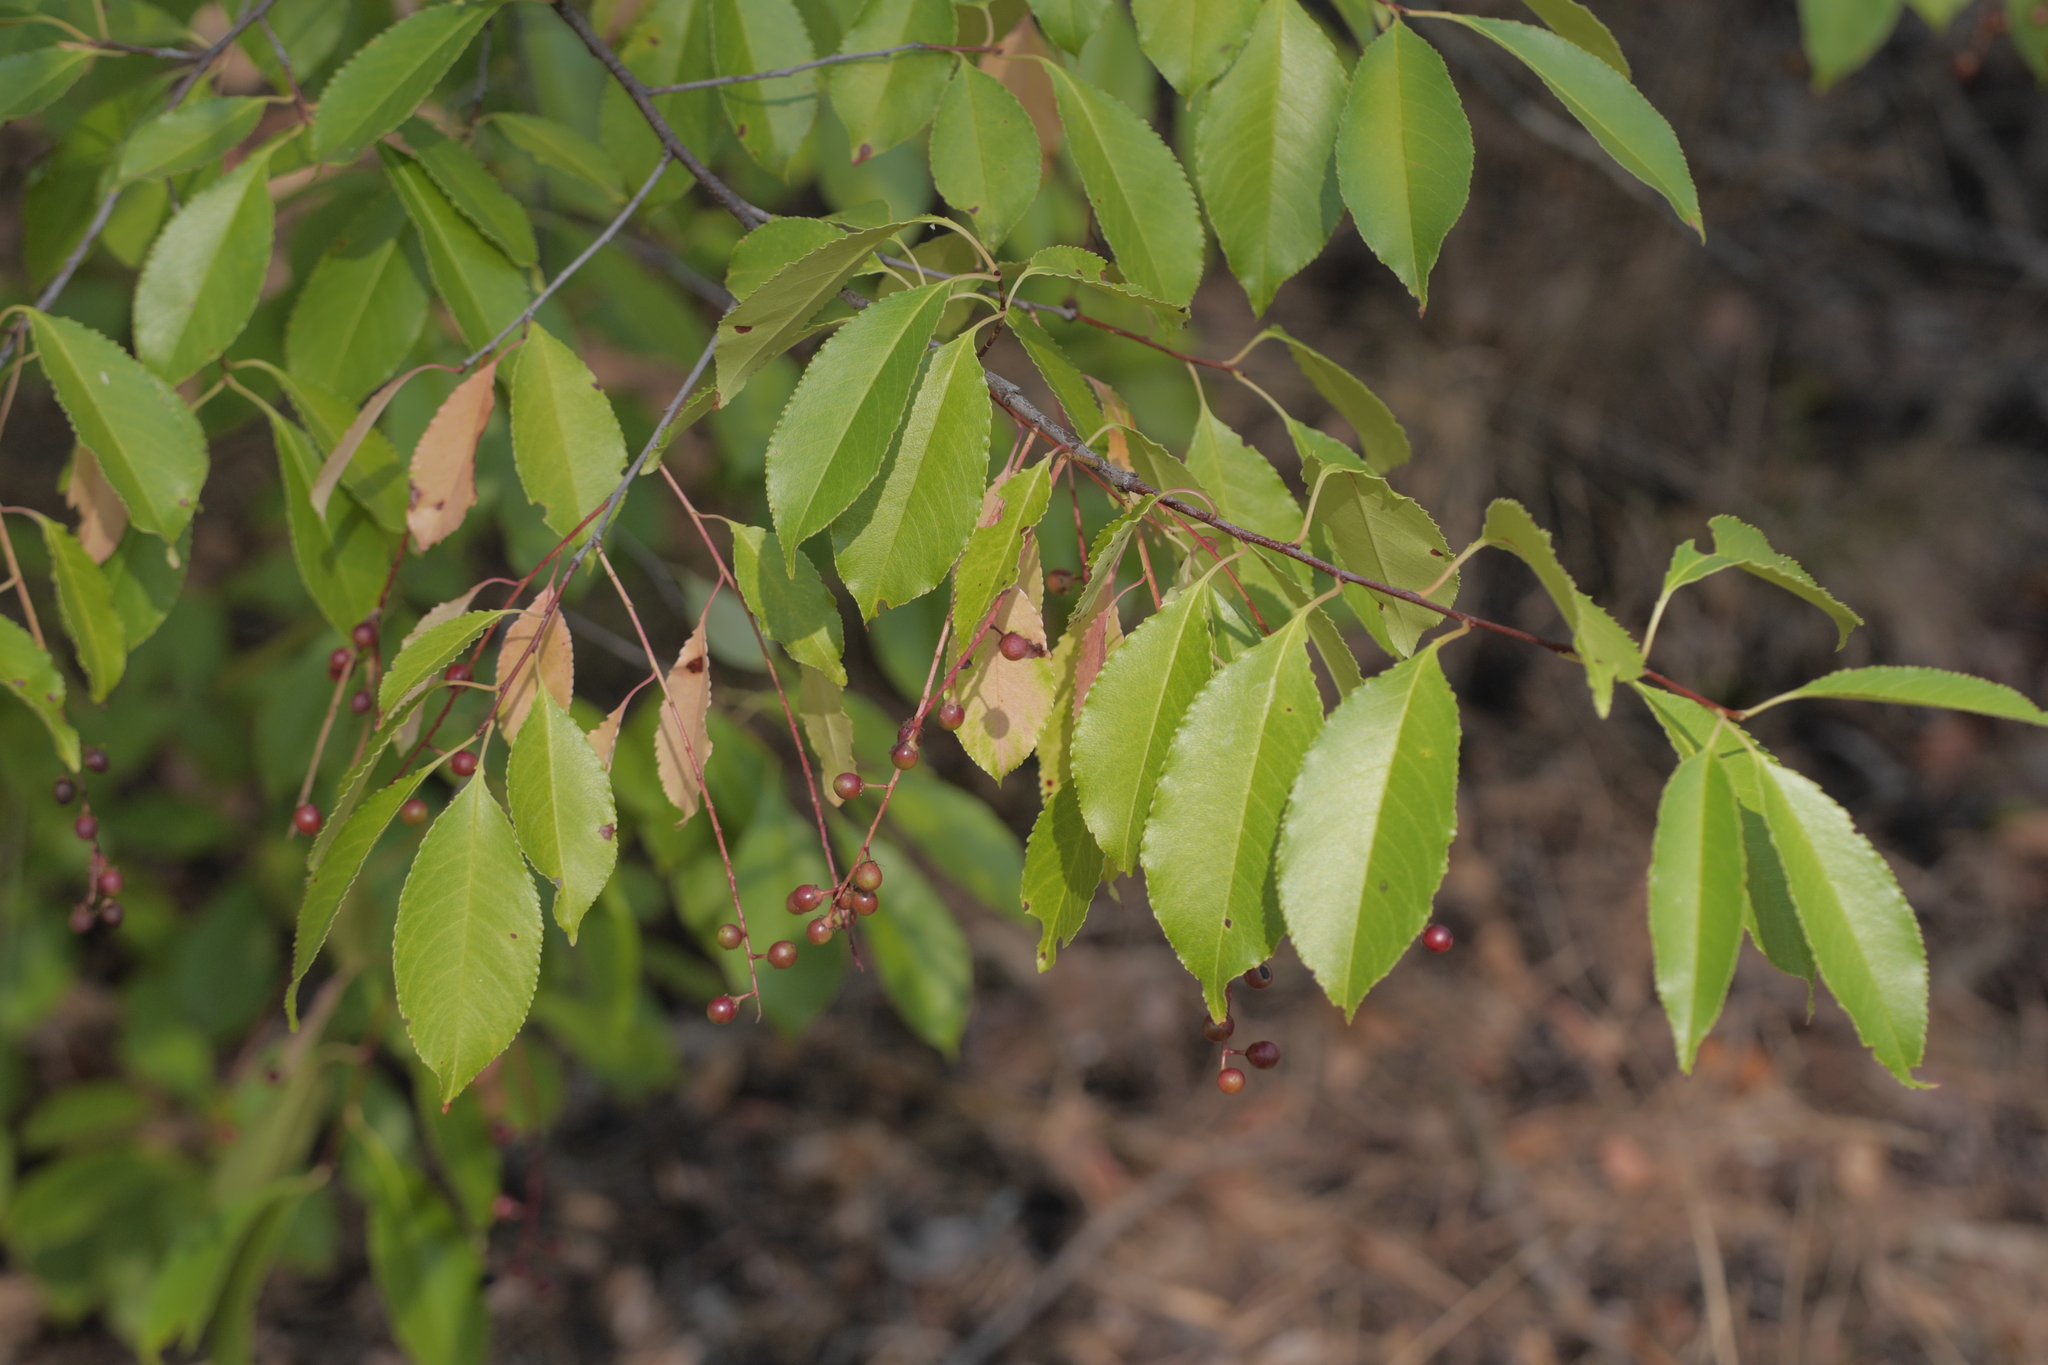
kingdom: Plantae
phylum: Tracheophyta
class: Magnoliopsida
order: Rosales
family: Rosaceae
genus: Prunus
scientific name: Prunus serotina
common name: Black cherry
